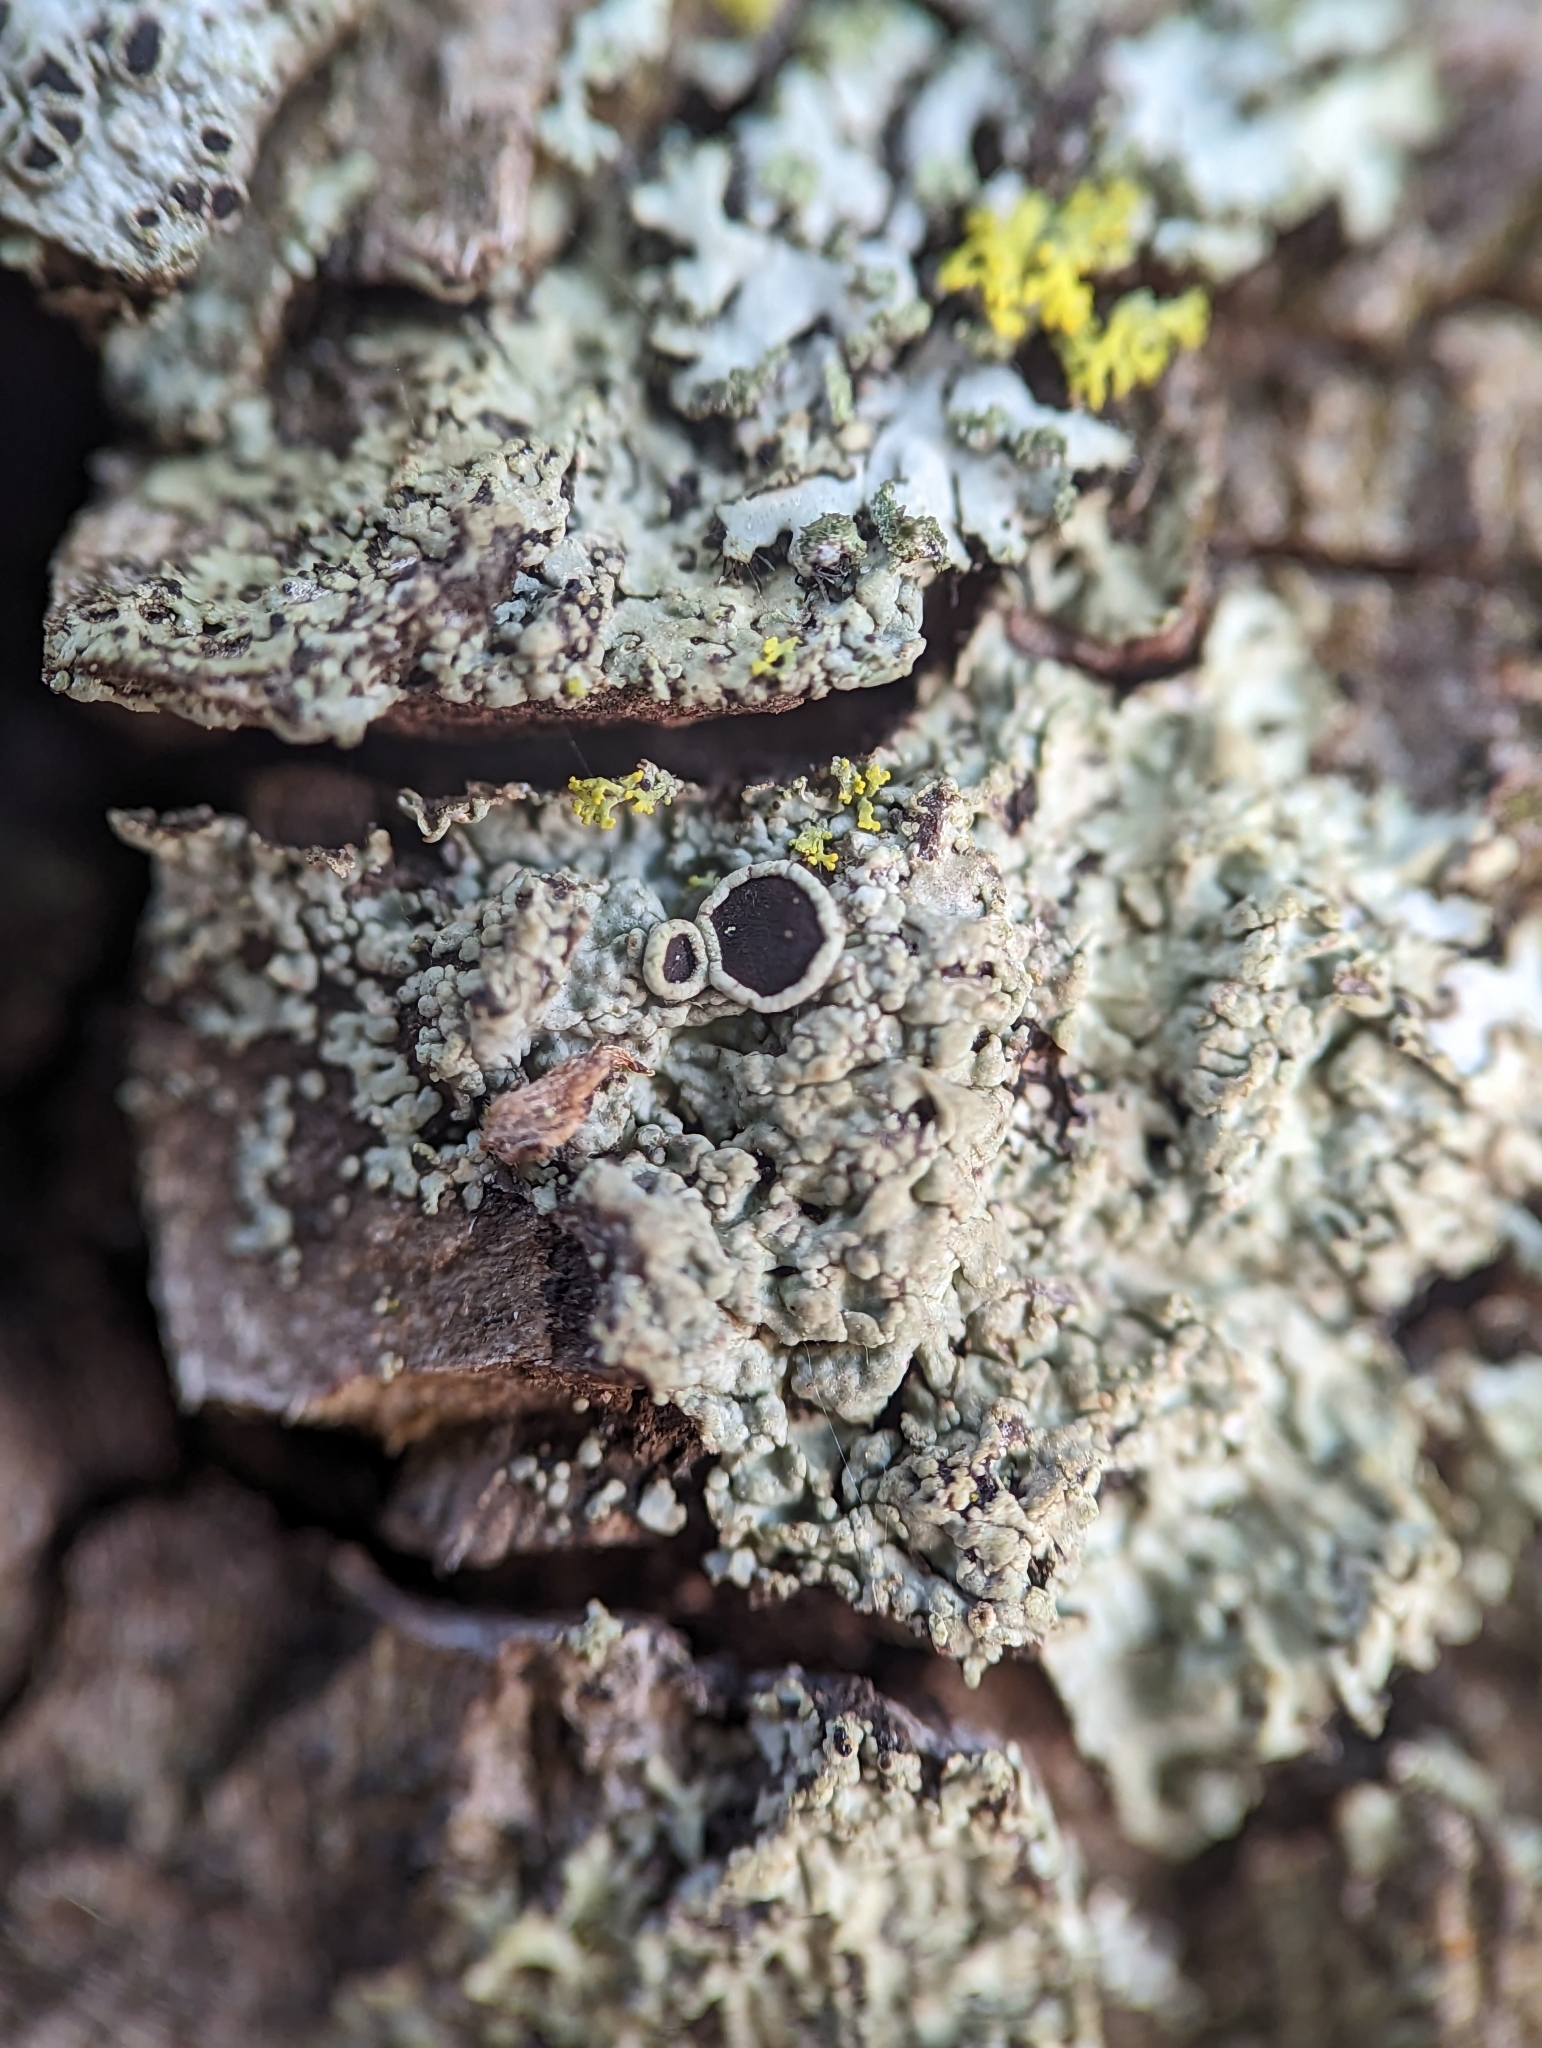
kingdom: Fungi
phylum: Ascomycota
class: Lecanoromycetes
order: Caliciales
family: Physciaceae
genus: Hyperphyscia
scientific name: Hyperphyscia syncolla
